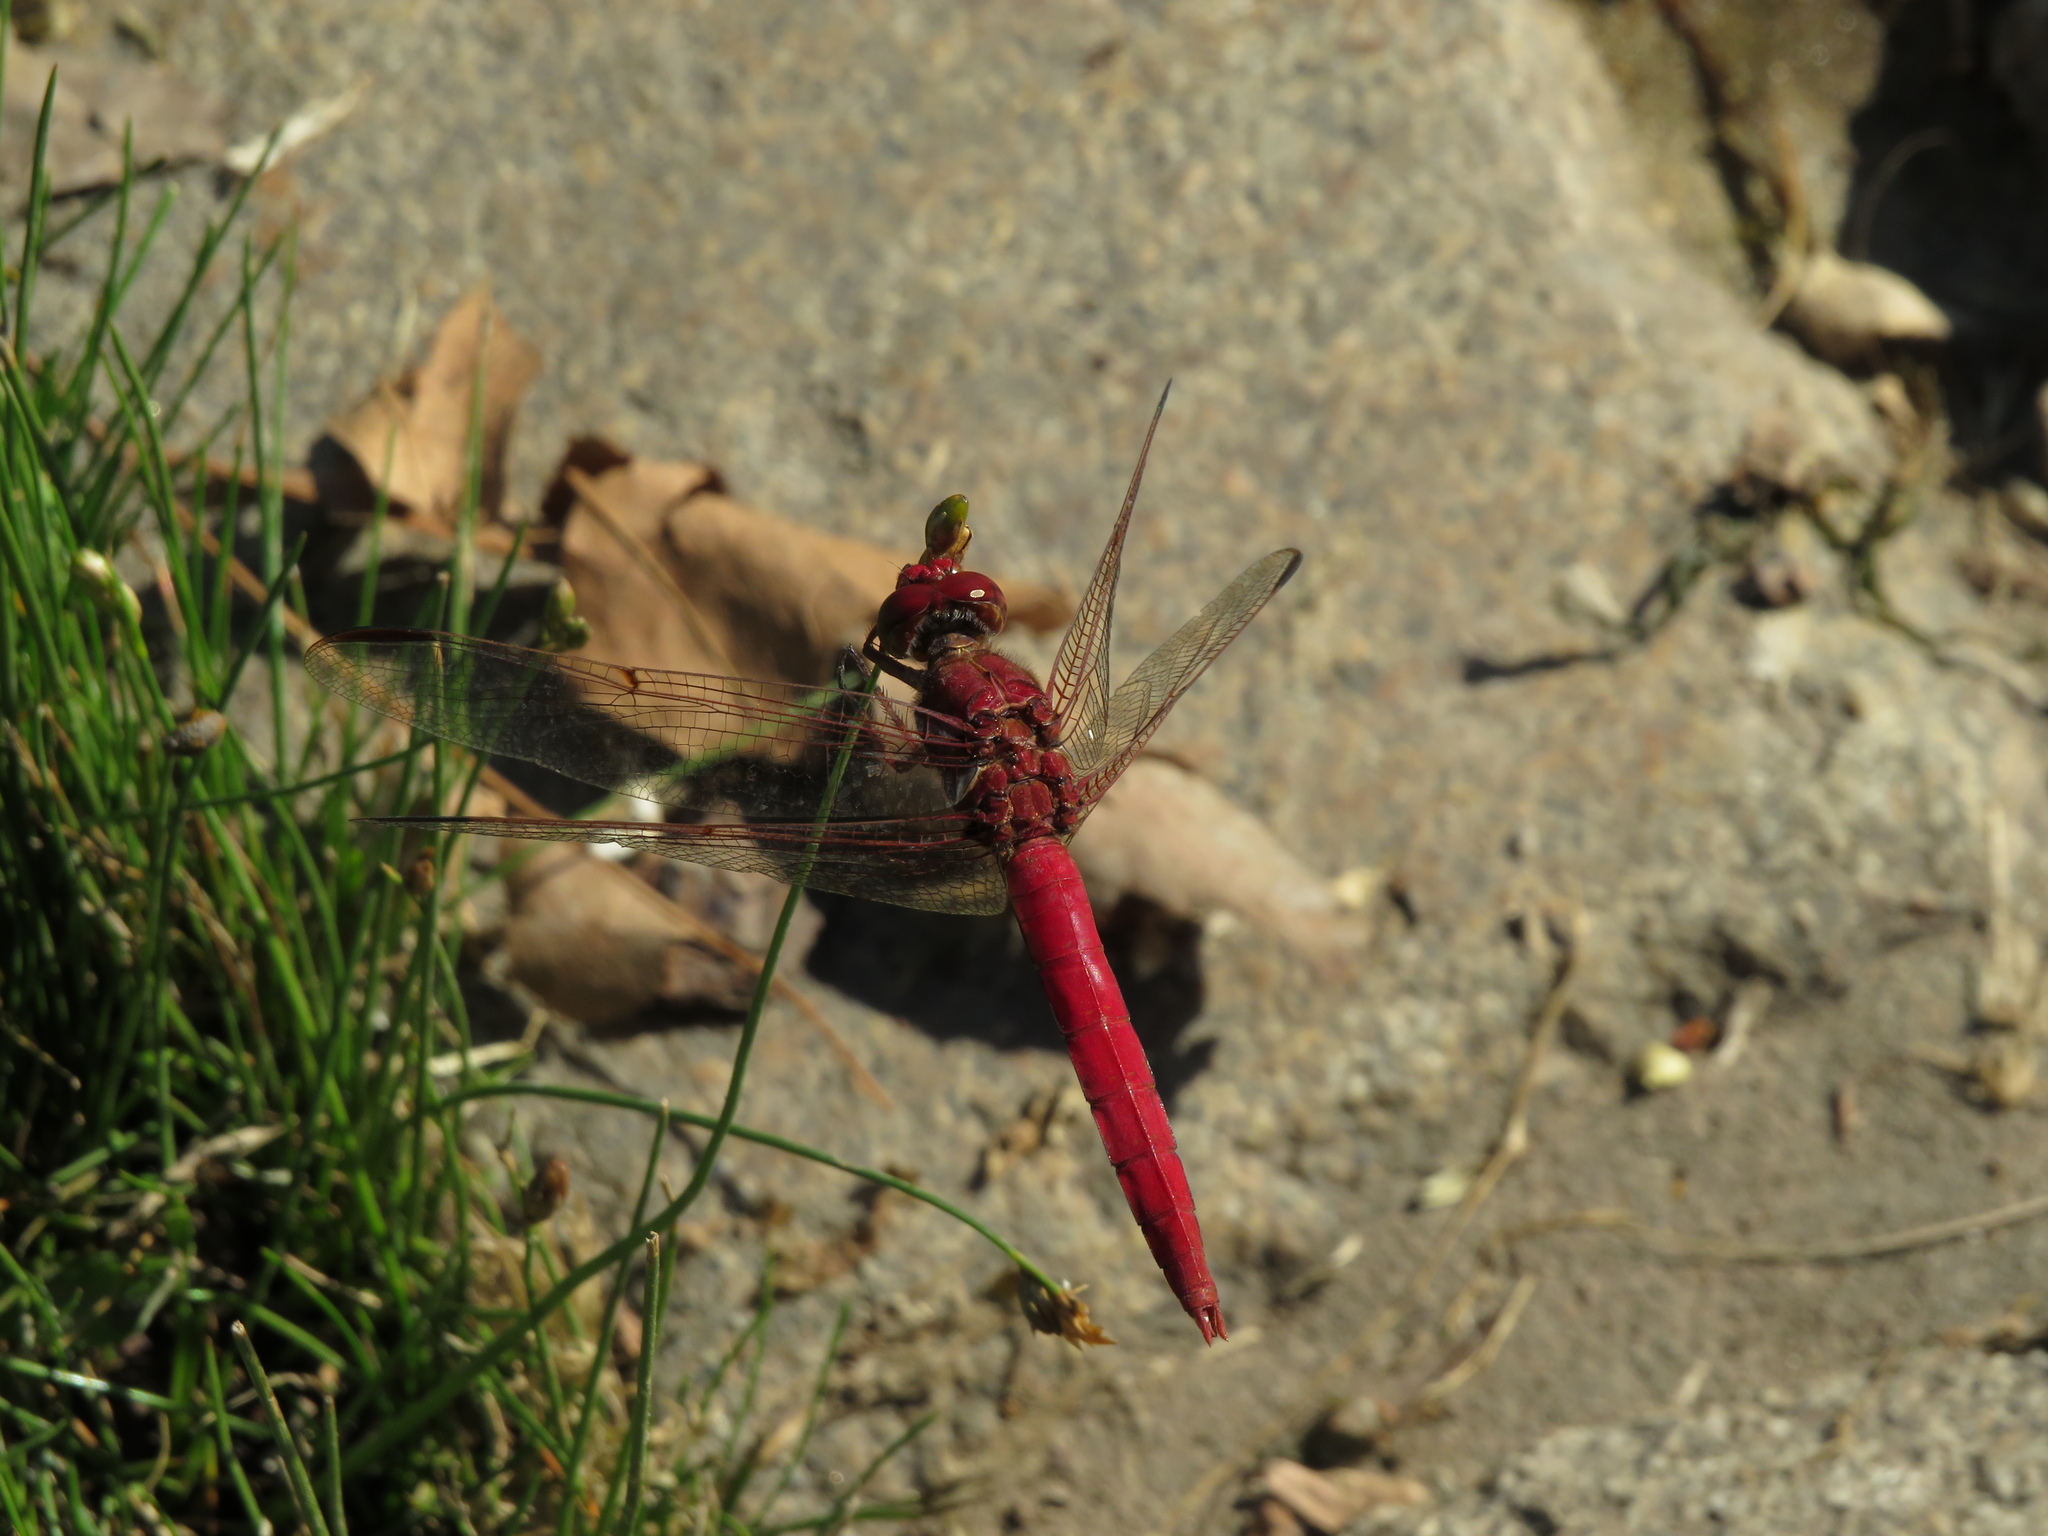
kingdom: Animalia
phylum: Arthropoda
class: Insecta
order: Odonata
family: Libellulidae
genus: Orthemis
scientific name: Orthemis nodiplaga
